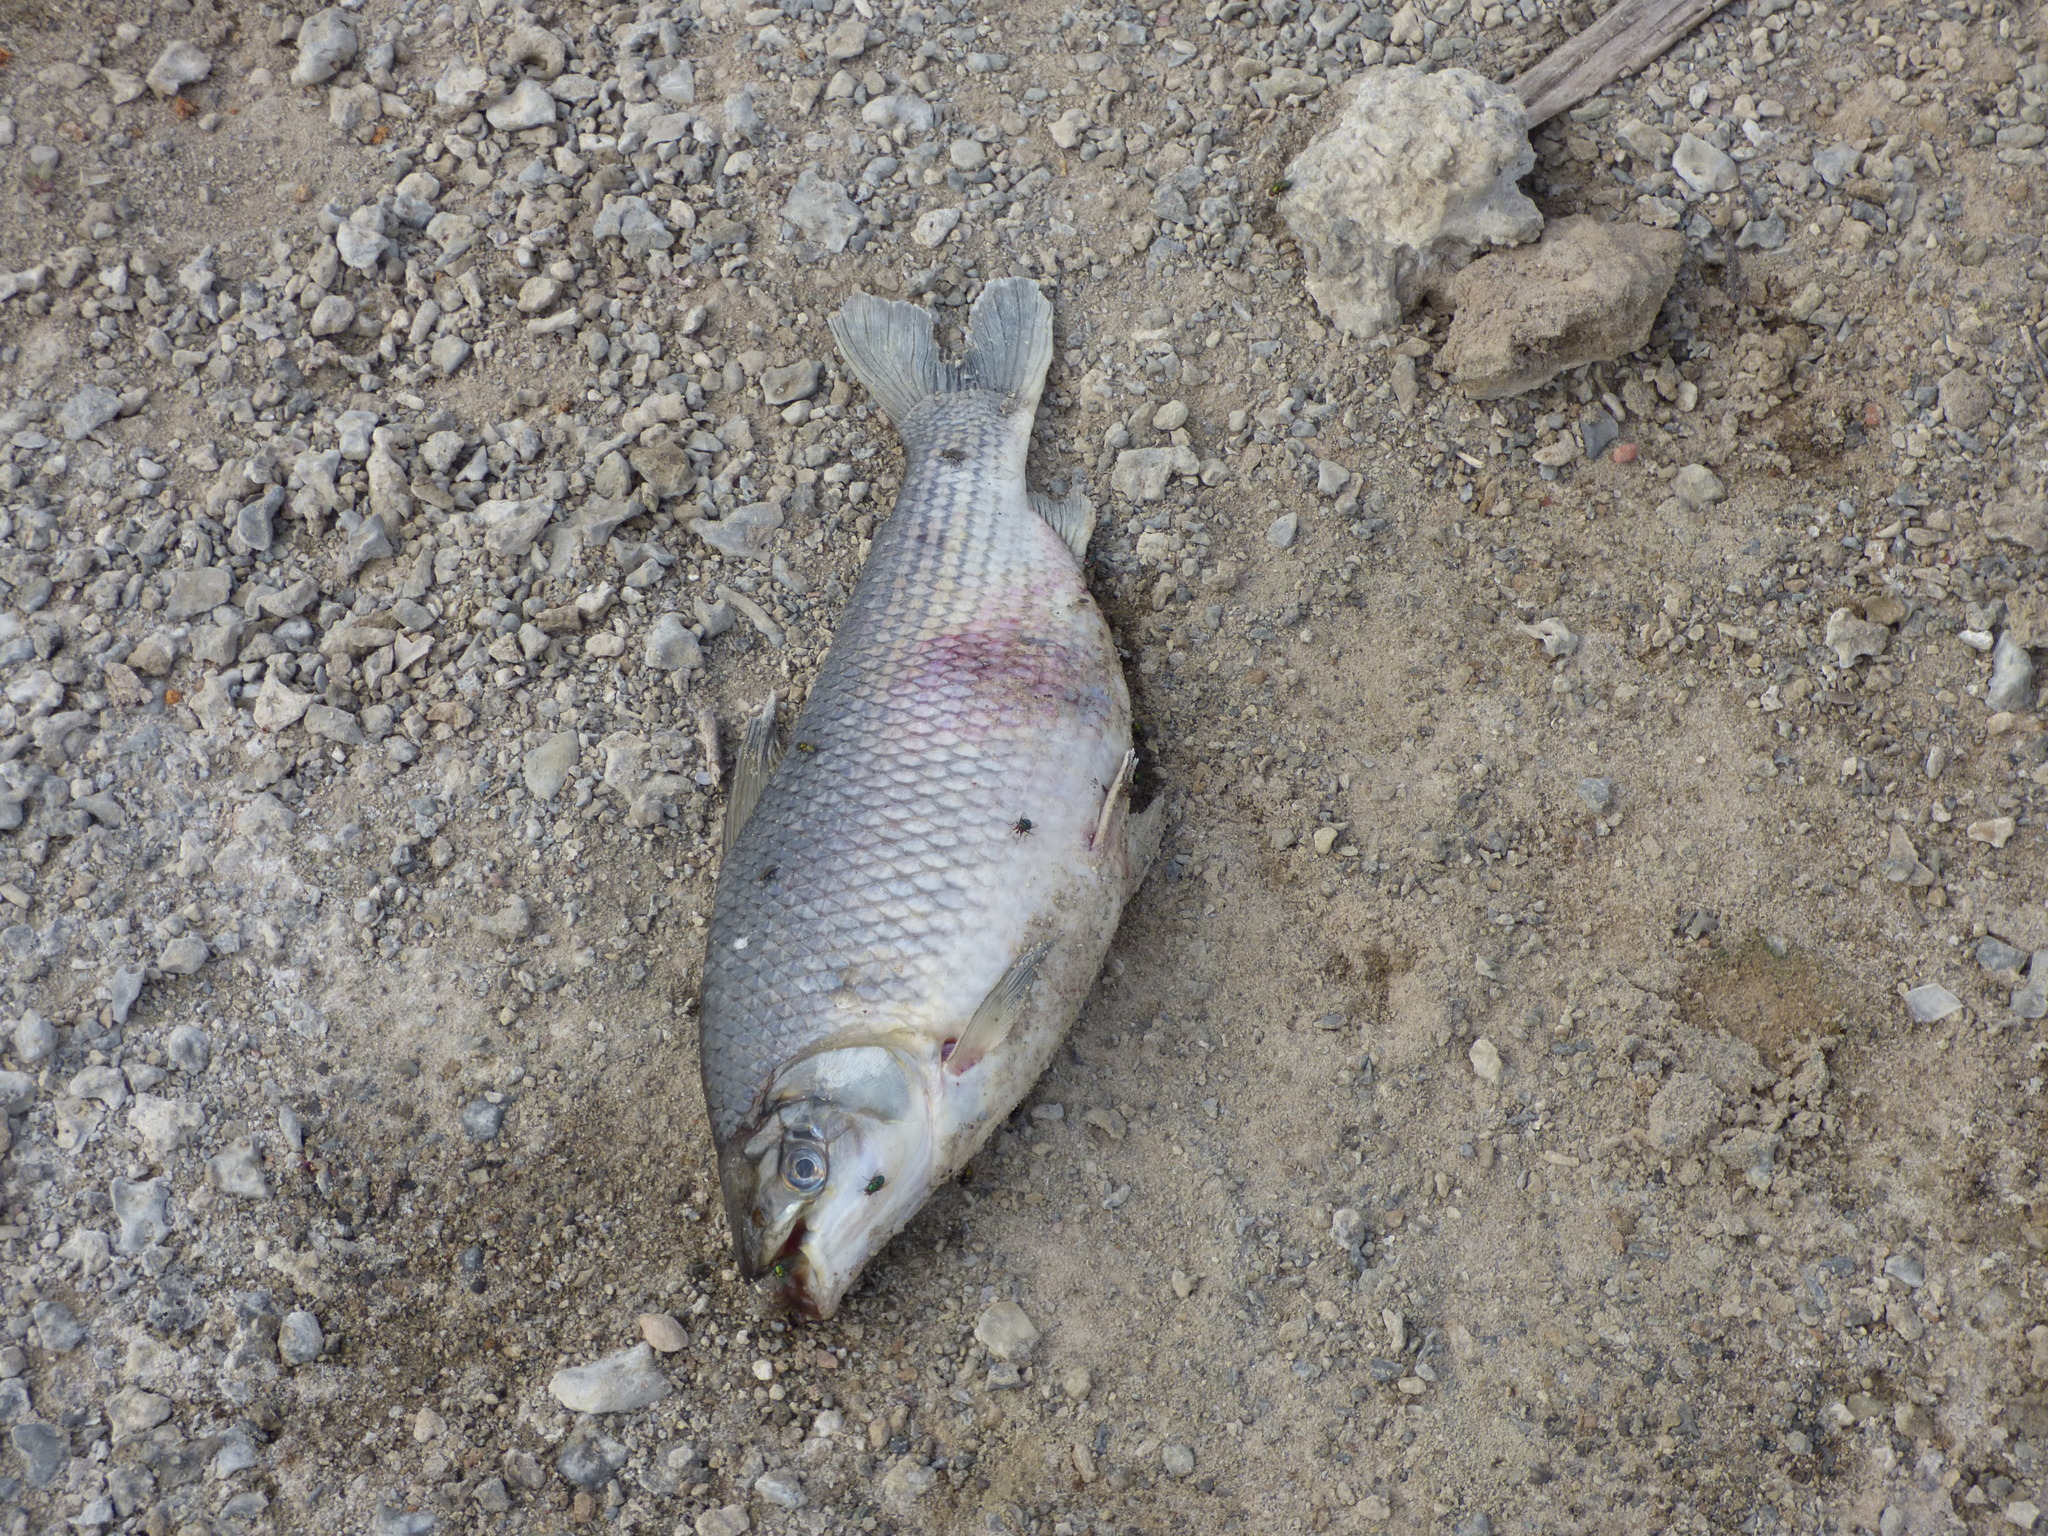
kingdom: Animalia
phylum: Chordata
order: Characiformes
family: Prochilodontidae
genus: Prochilodus
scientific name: Prochilodus lineatus
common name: Curimbata
